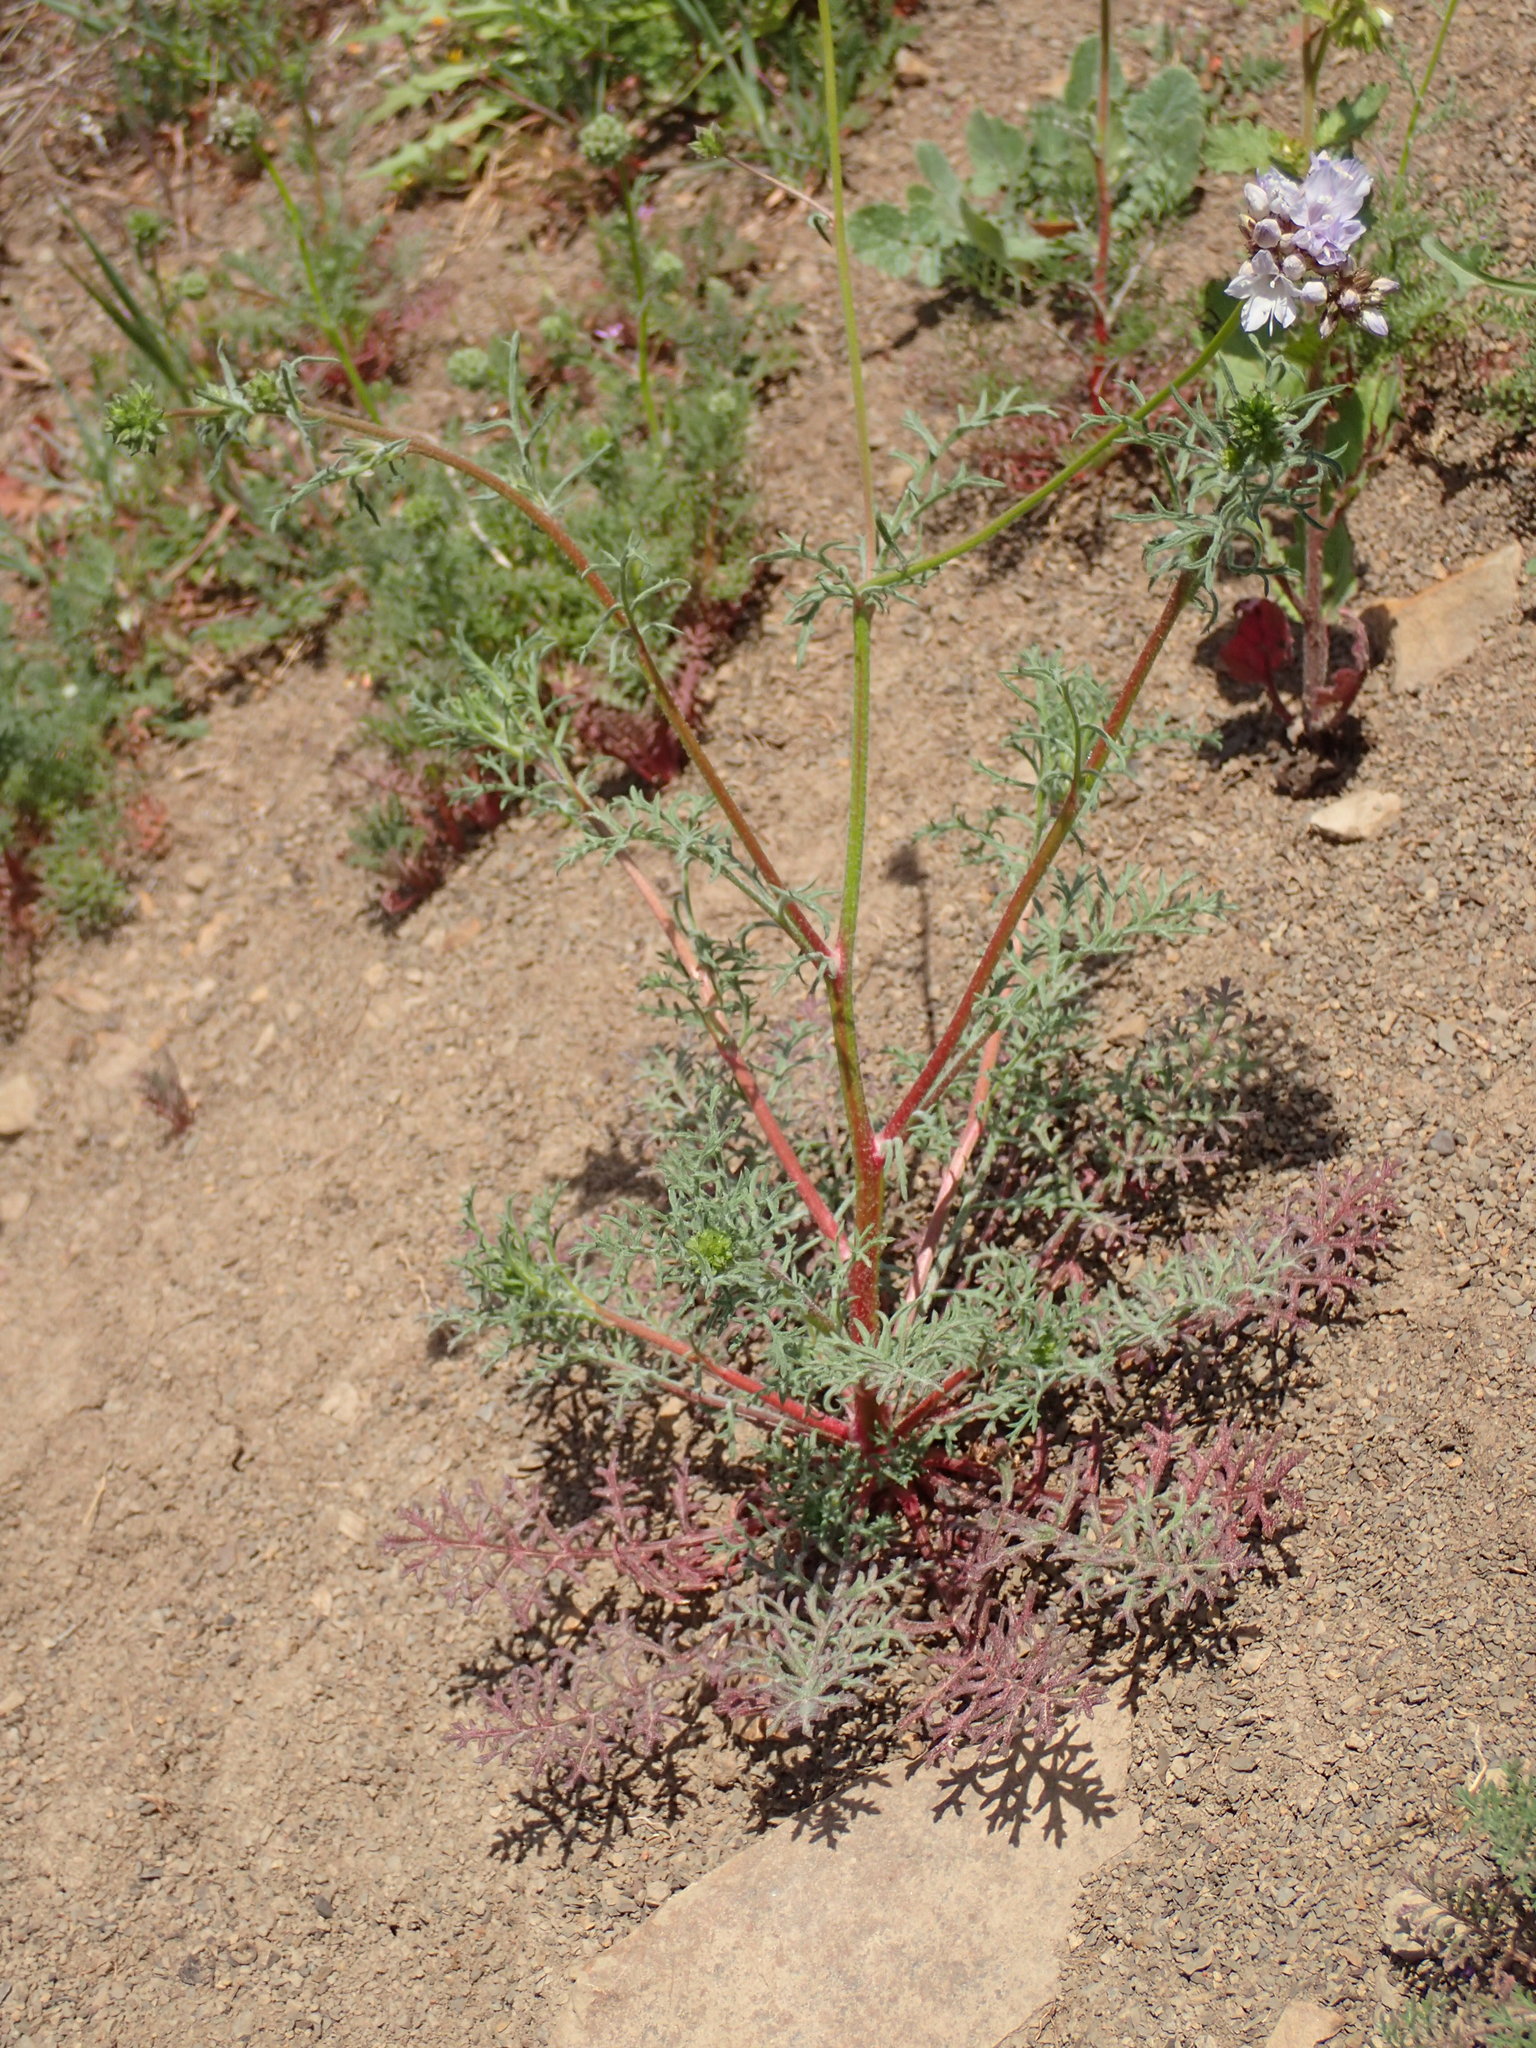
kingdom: Plantae
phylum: Tracheophyta
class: Magnoliopsida
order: Ericales
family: Polemoniaceae
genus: Gilia
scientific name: Gilia capitata
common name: Bluehead gilia
